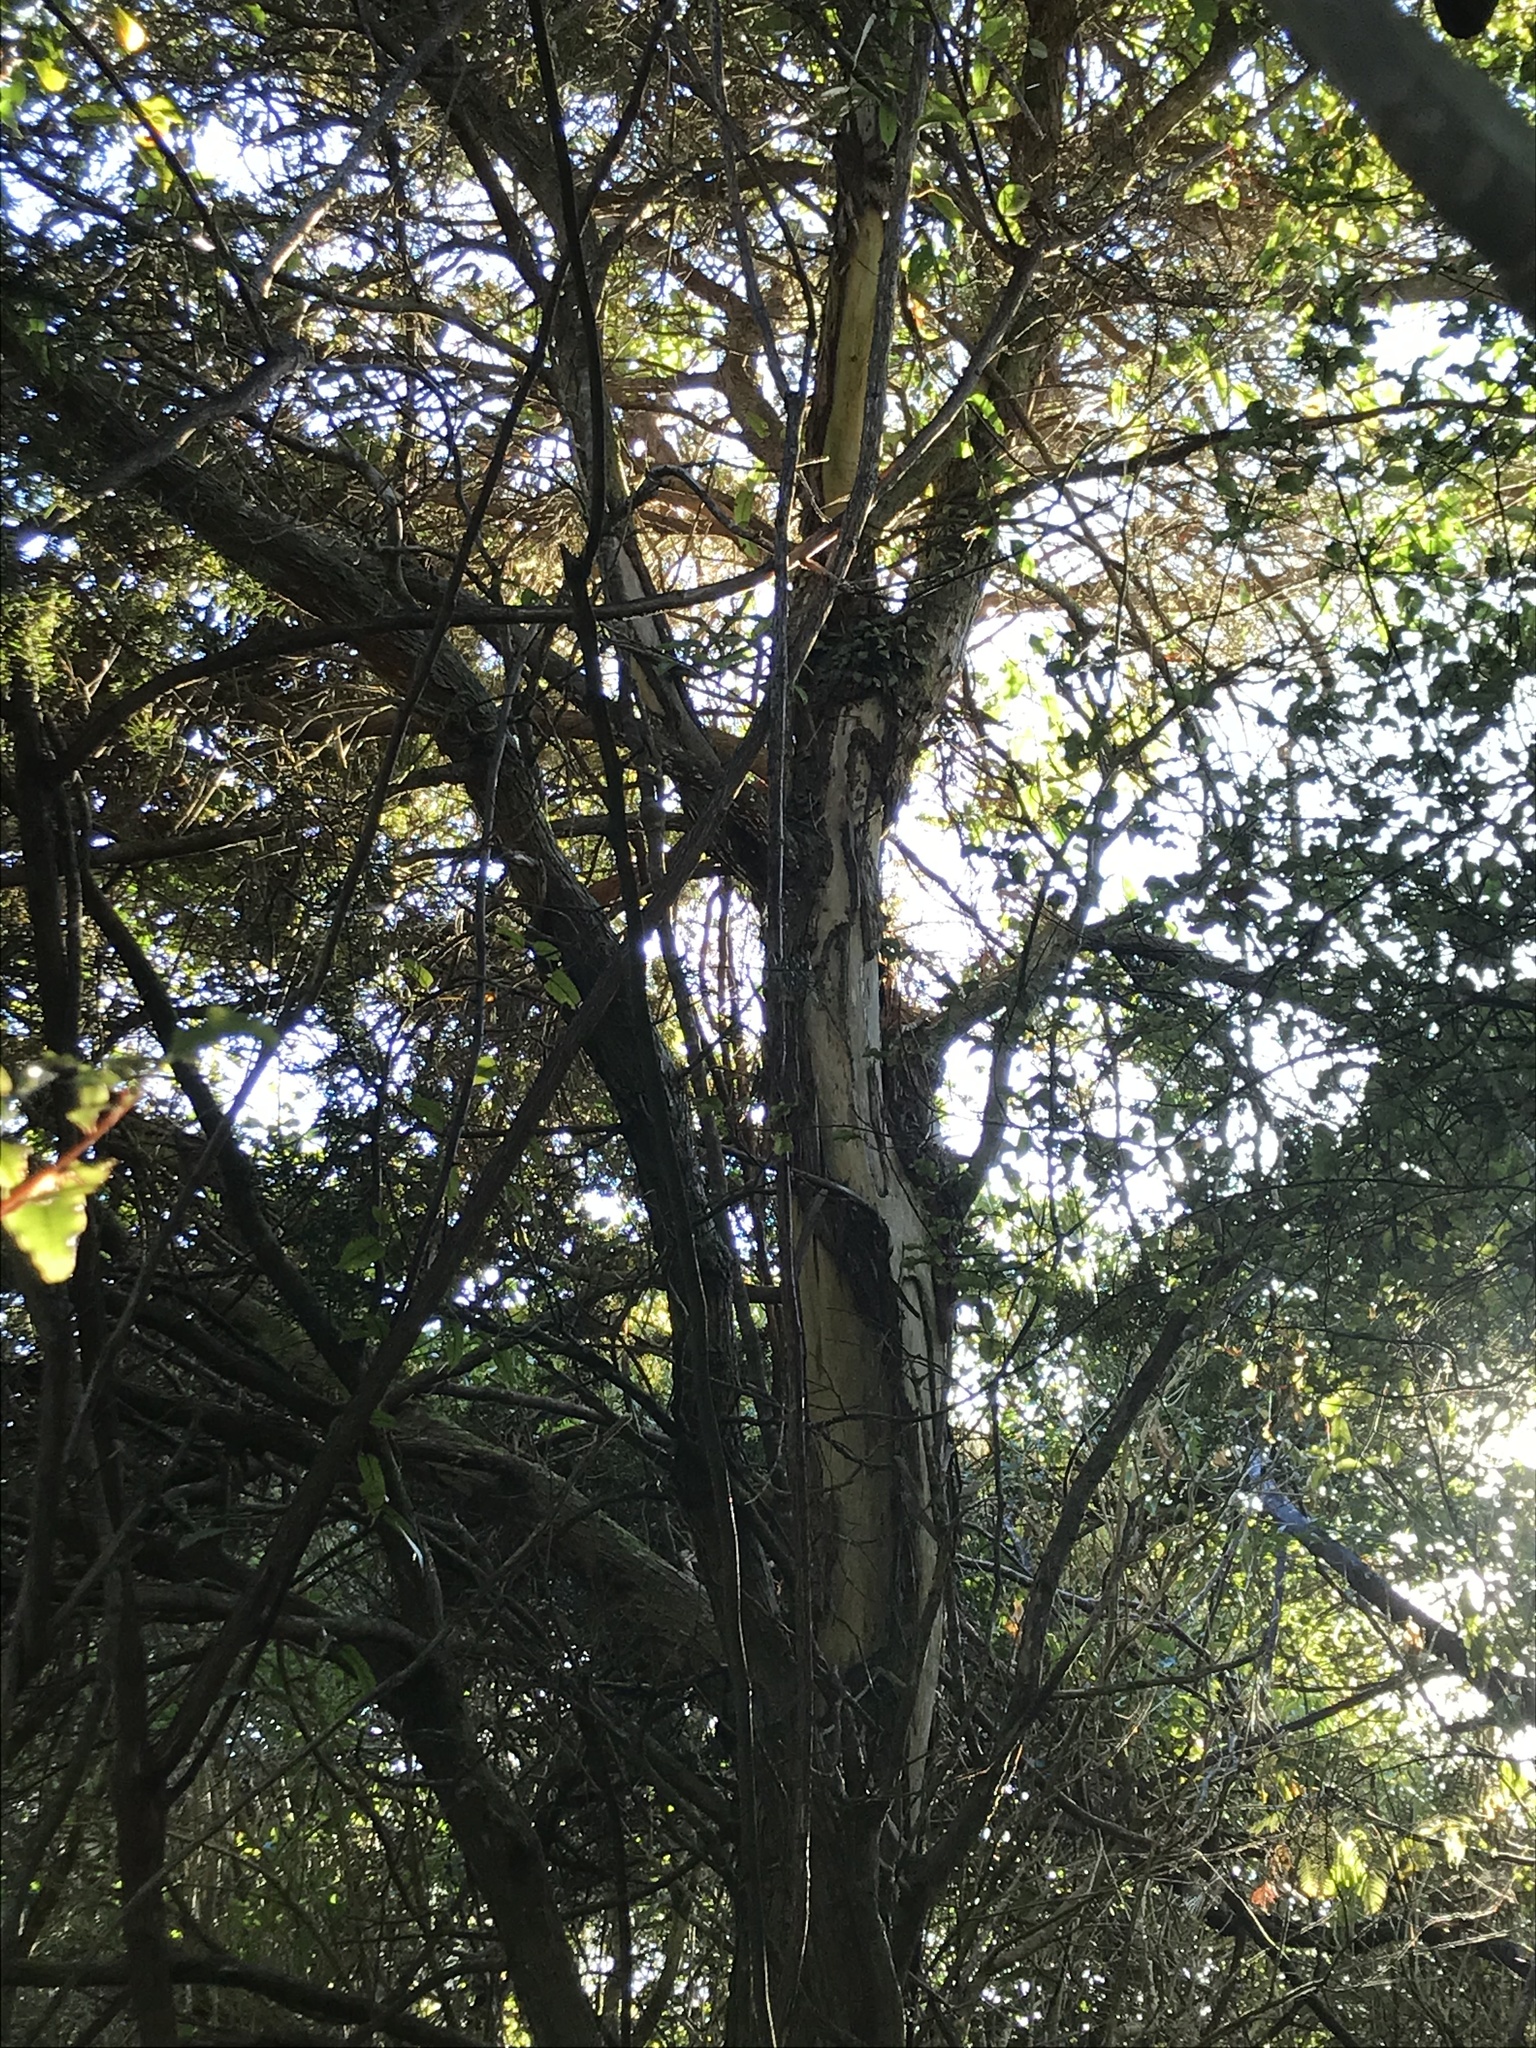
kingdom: Animalia
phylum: Chordata
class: Aves
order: Psittaciformes
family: Psittacidae
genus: Nestor
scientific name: Nestor meridionalis
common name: New zealand kaka
